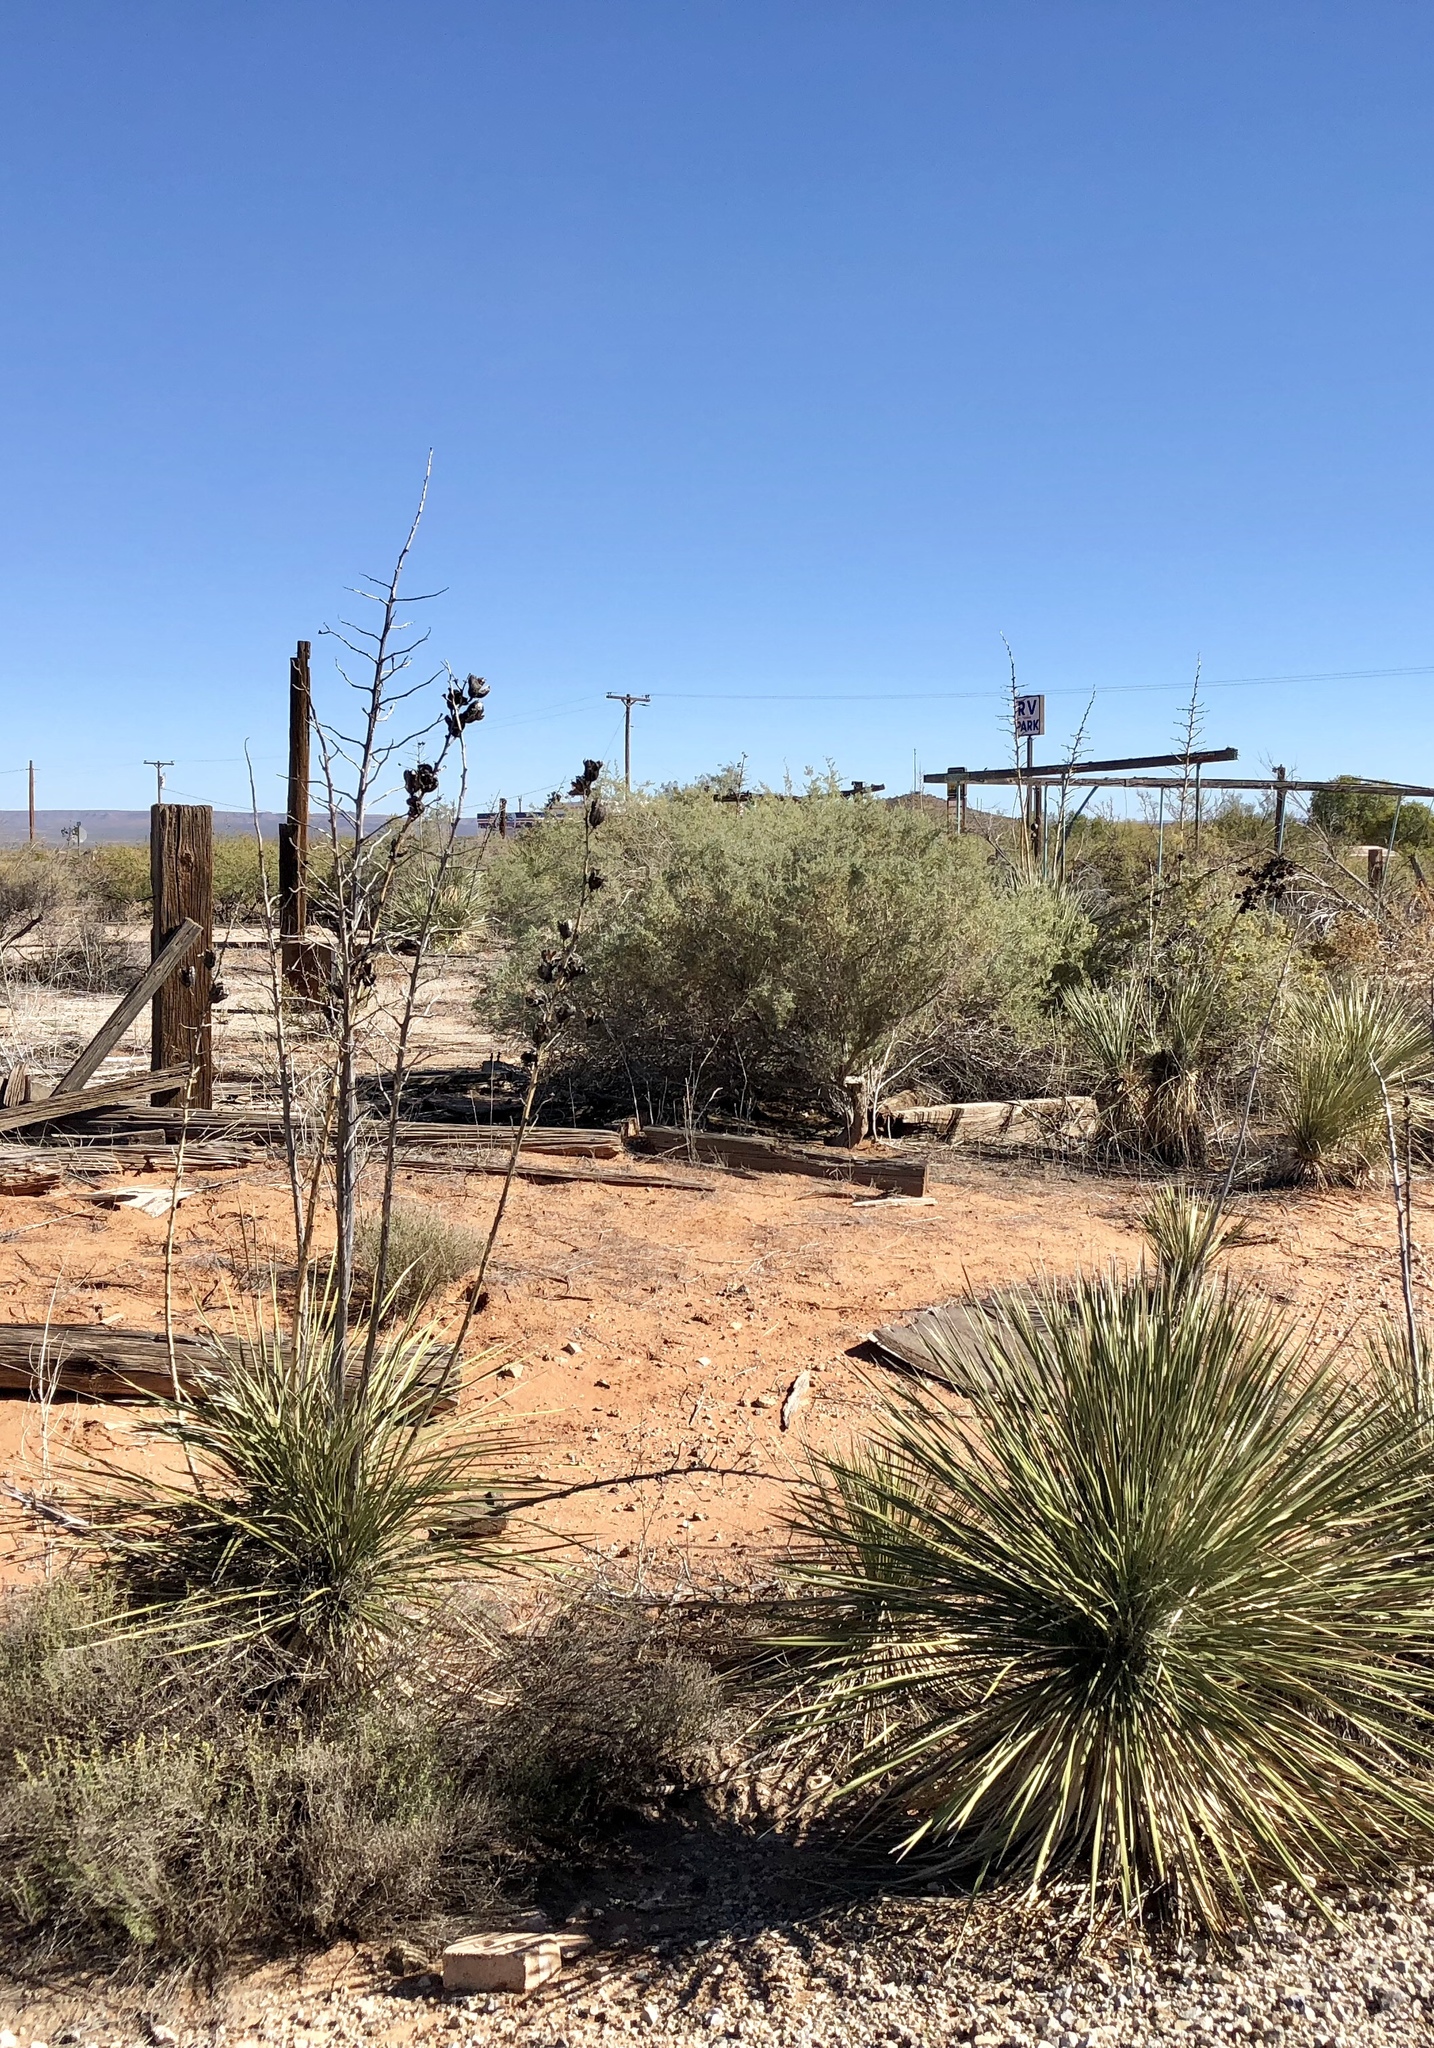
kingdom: Plantae
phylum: Tracheophyta
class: Liliopsida
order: Asparagales
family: Asparagaceae
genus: Yucca
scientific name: Yucca elata
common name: Palmella
